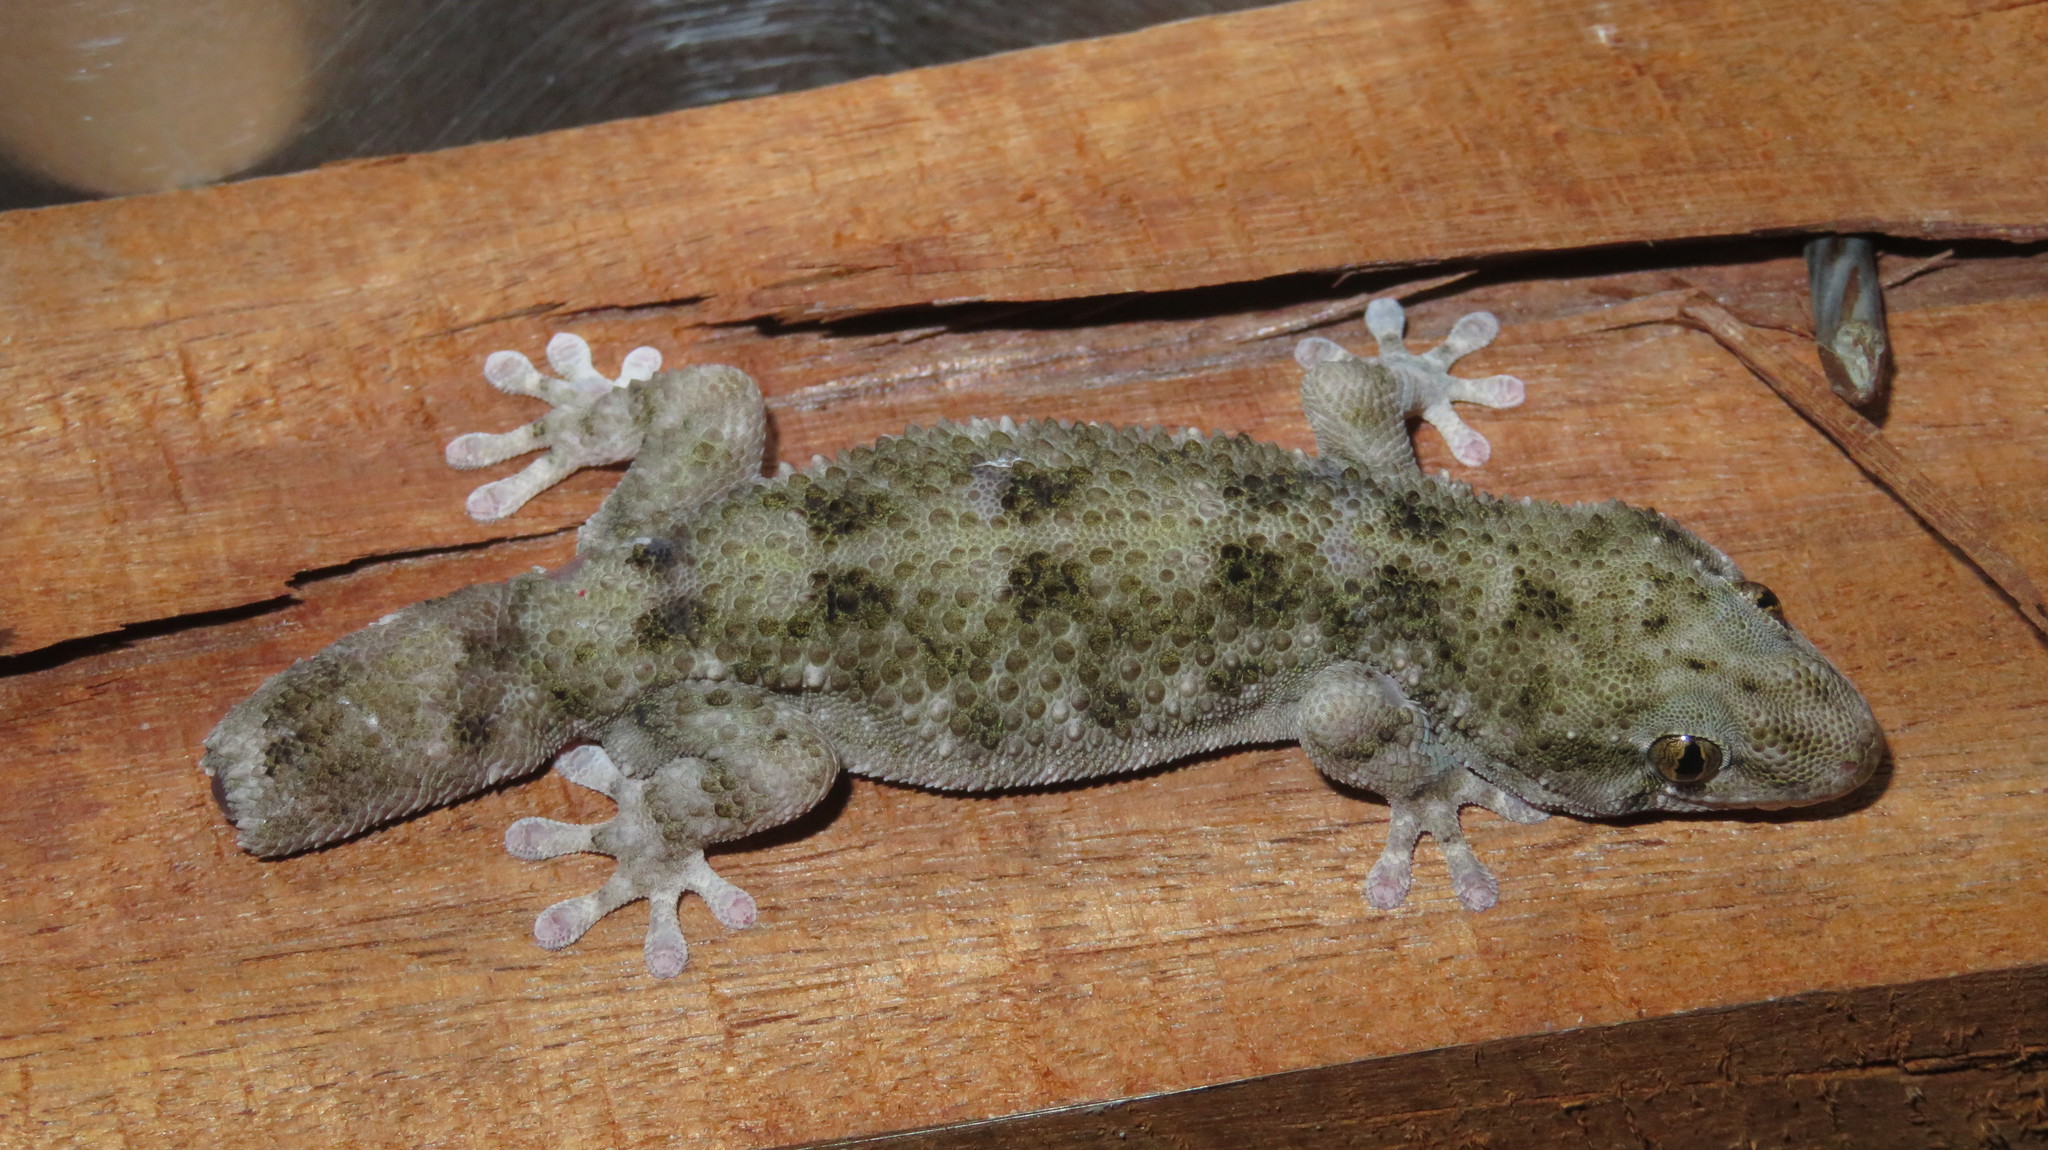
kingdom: Animalia
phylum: Chordata
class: Squamata
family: Gekkonidae
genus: Elasmodactylus
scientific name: Elasmodactylus tuberculosus
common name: Warty thick-toed gecko
